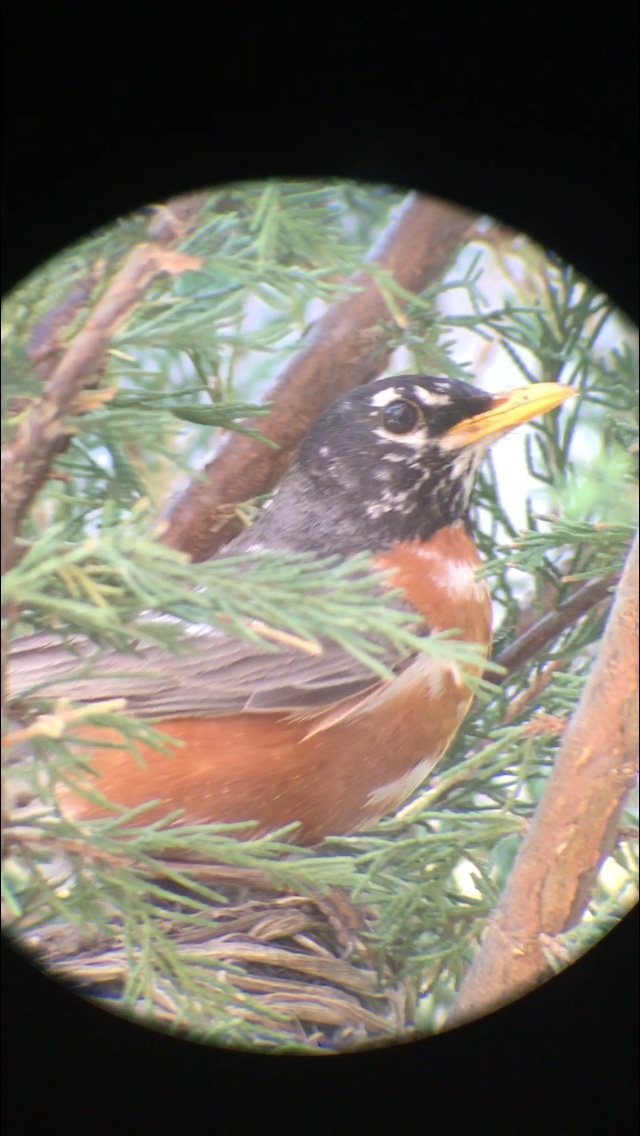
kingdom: Animalia
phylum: Chordata
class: Aves
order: Passeriformes
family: Turdidae
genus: Turdus
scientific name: Turdus migratorius
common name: American robin
